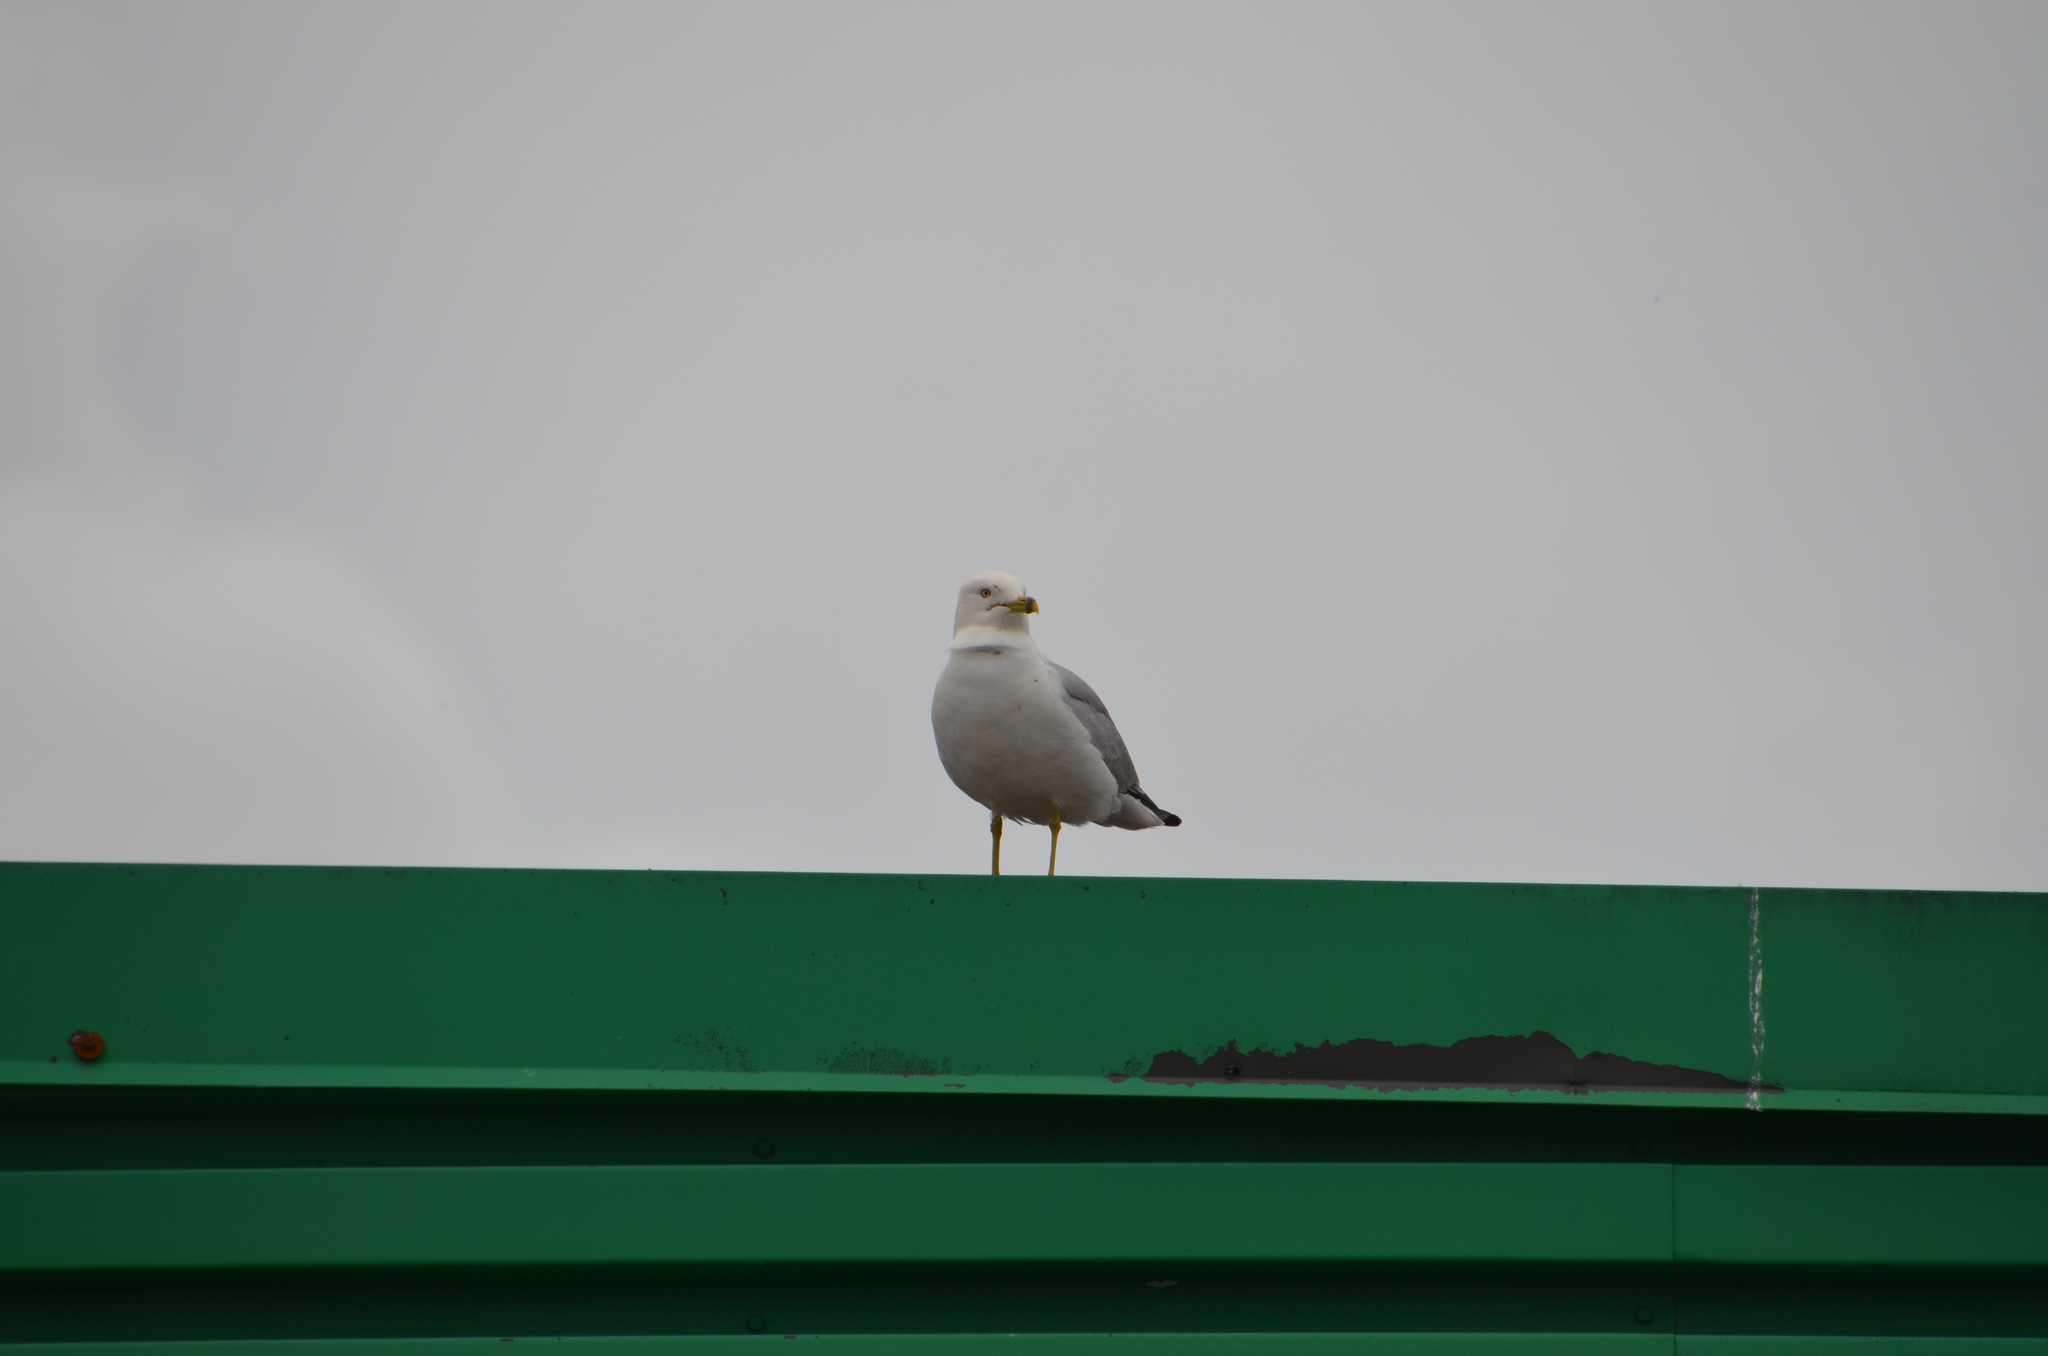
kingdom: Animalia
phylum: Chordata
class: Aves
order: Charadriiformes
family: Laridae
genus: Larus
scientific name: Larus delawarensis
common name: Ring-billed gull
